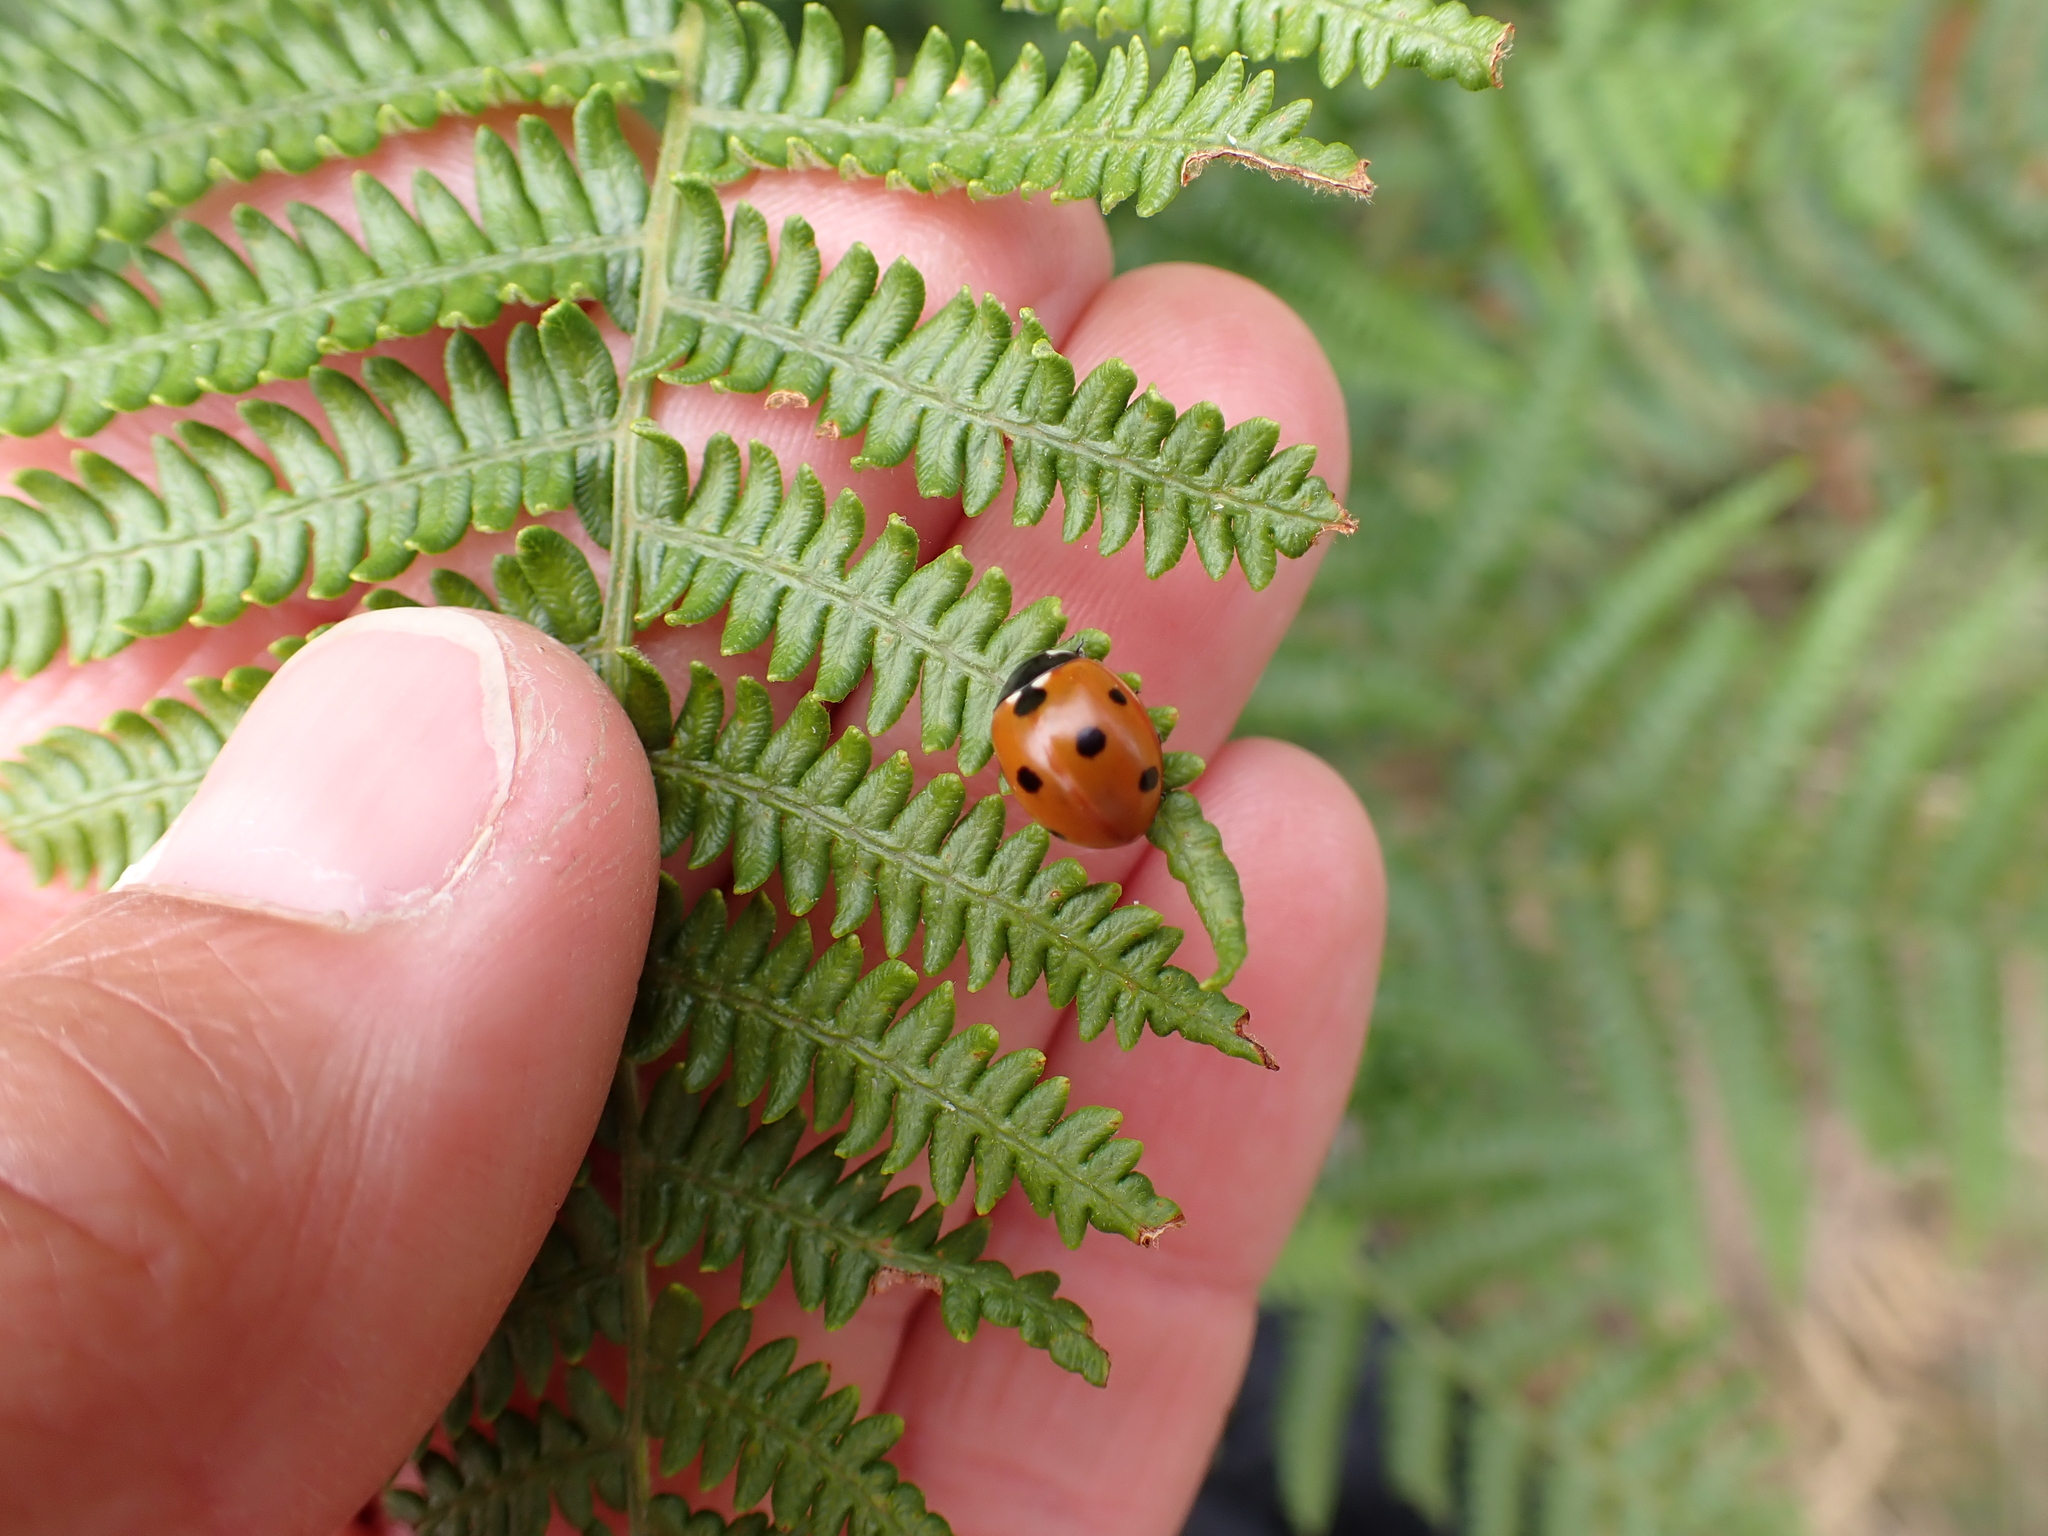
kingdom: Animalia
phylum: Arthropoda
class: Insecta
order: Coleoptera
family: Coccinellidae
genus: Coccinella
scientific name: Coccinella septempunctata
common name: Sevenspotted lady beetle
